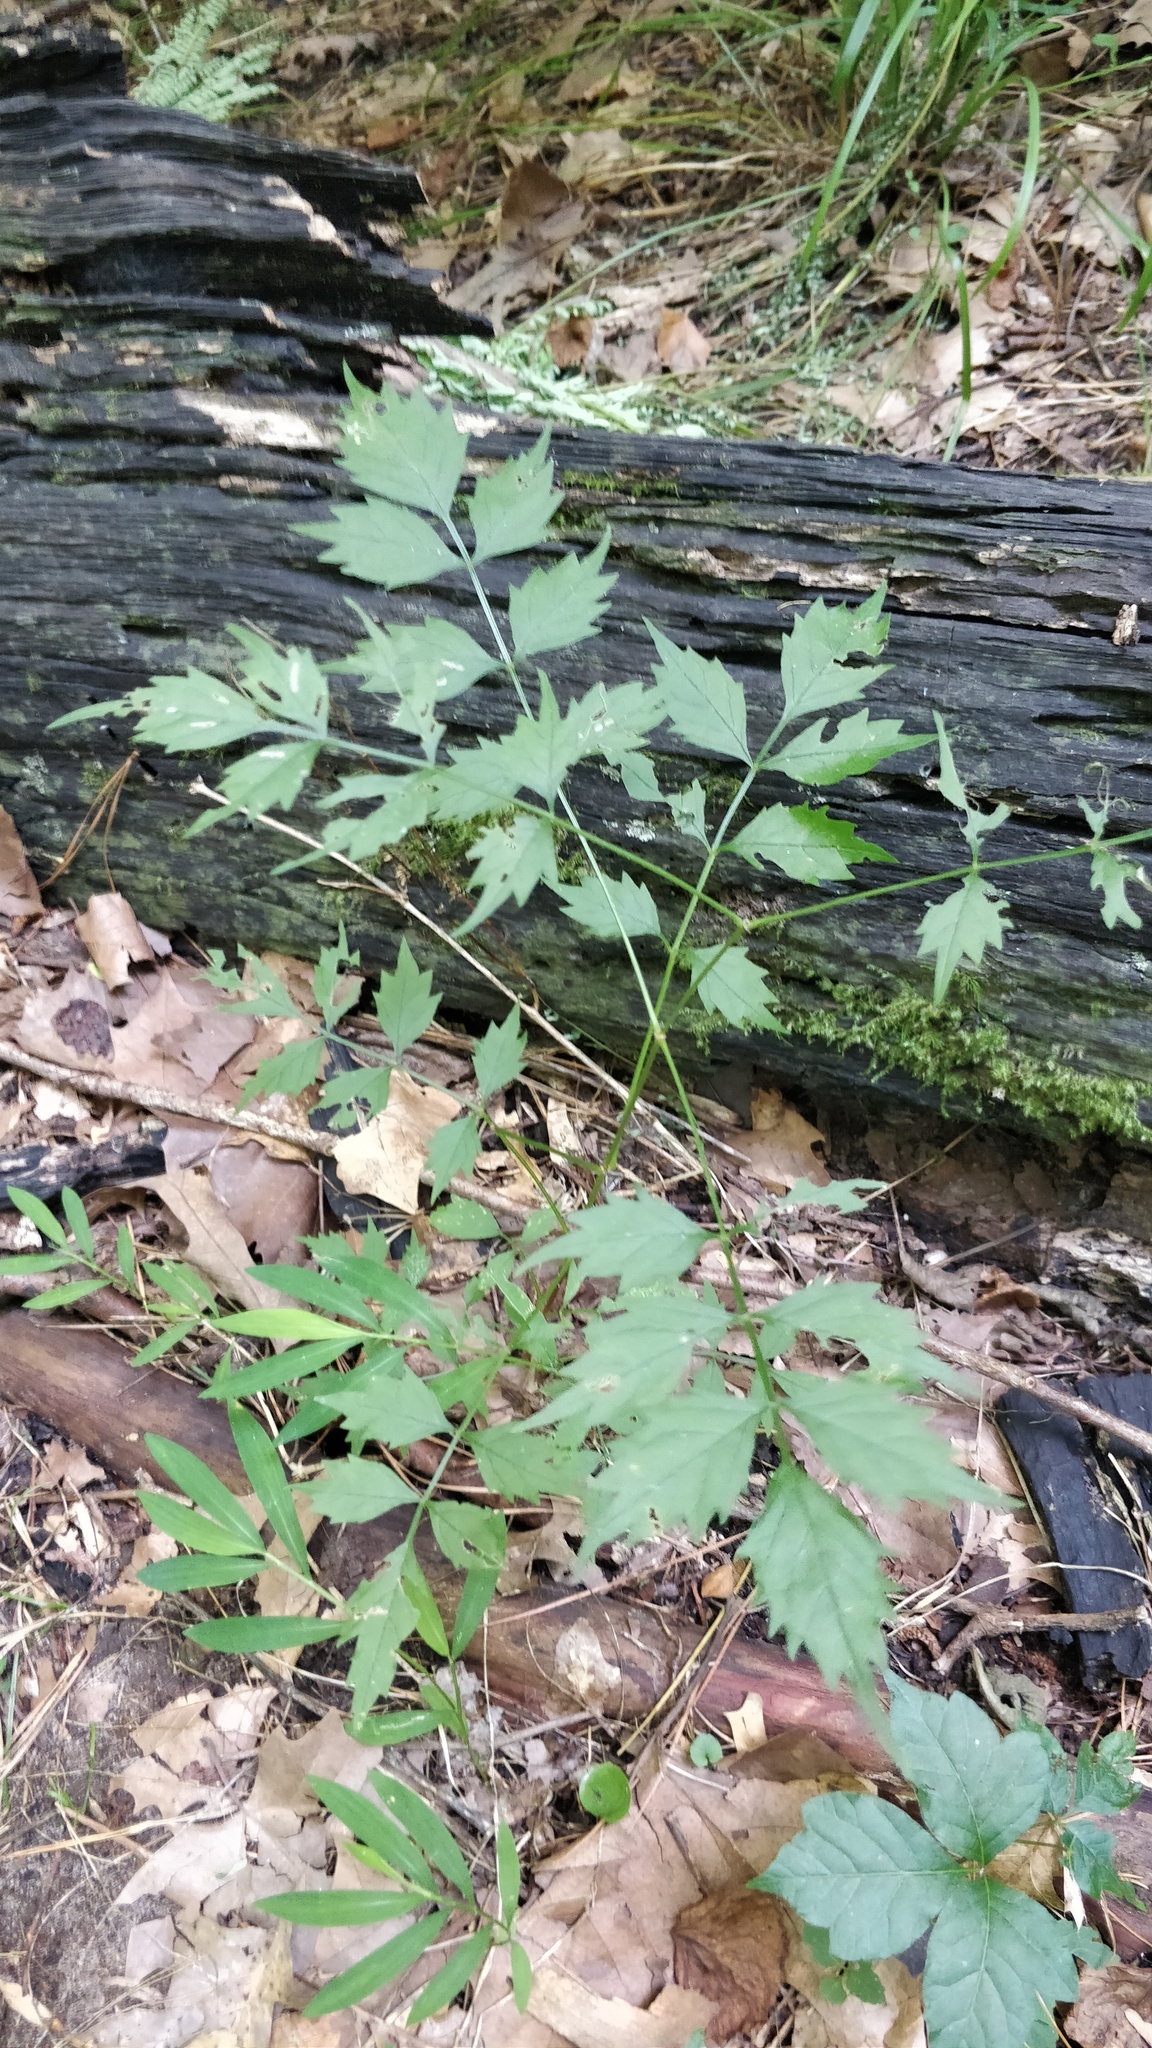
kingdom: Plantae
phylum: Tracheophyta
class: Magnoliopsida
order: Lamiales
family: Bignoniaceae
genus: Campsis
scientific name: Campsis radicans
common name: Trumpet-creeper
